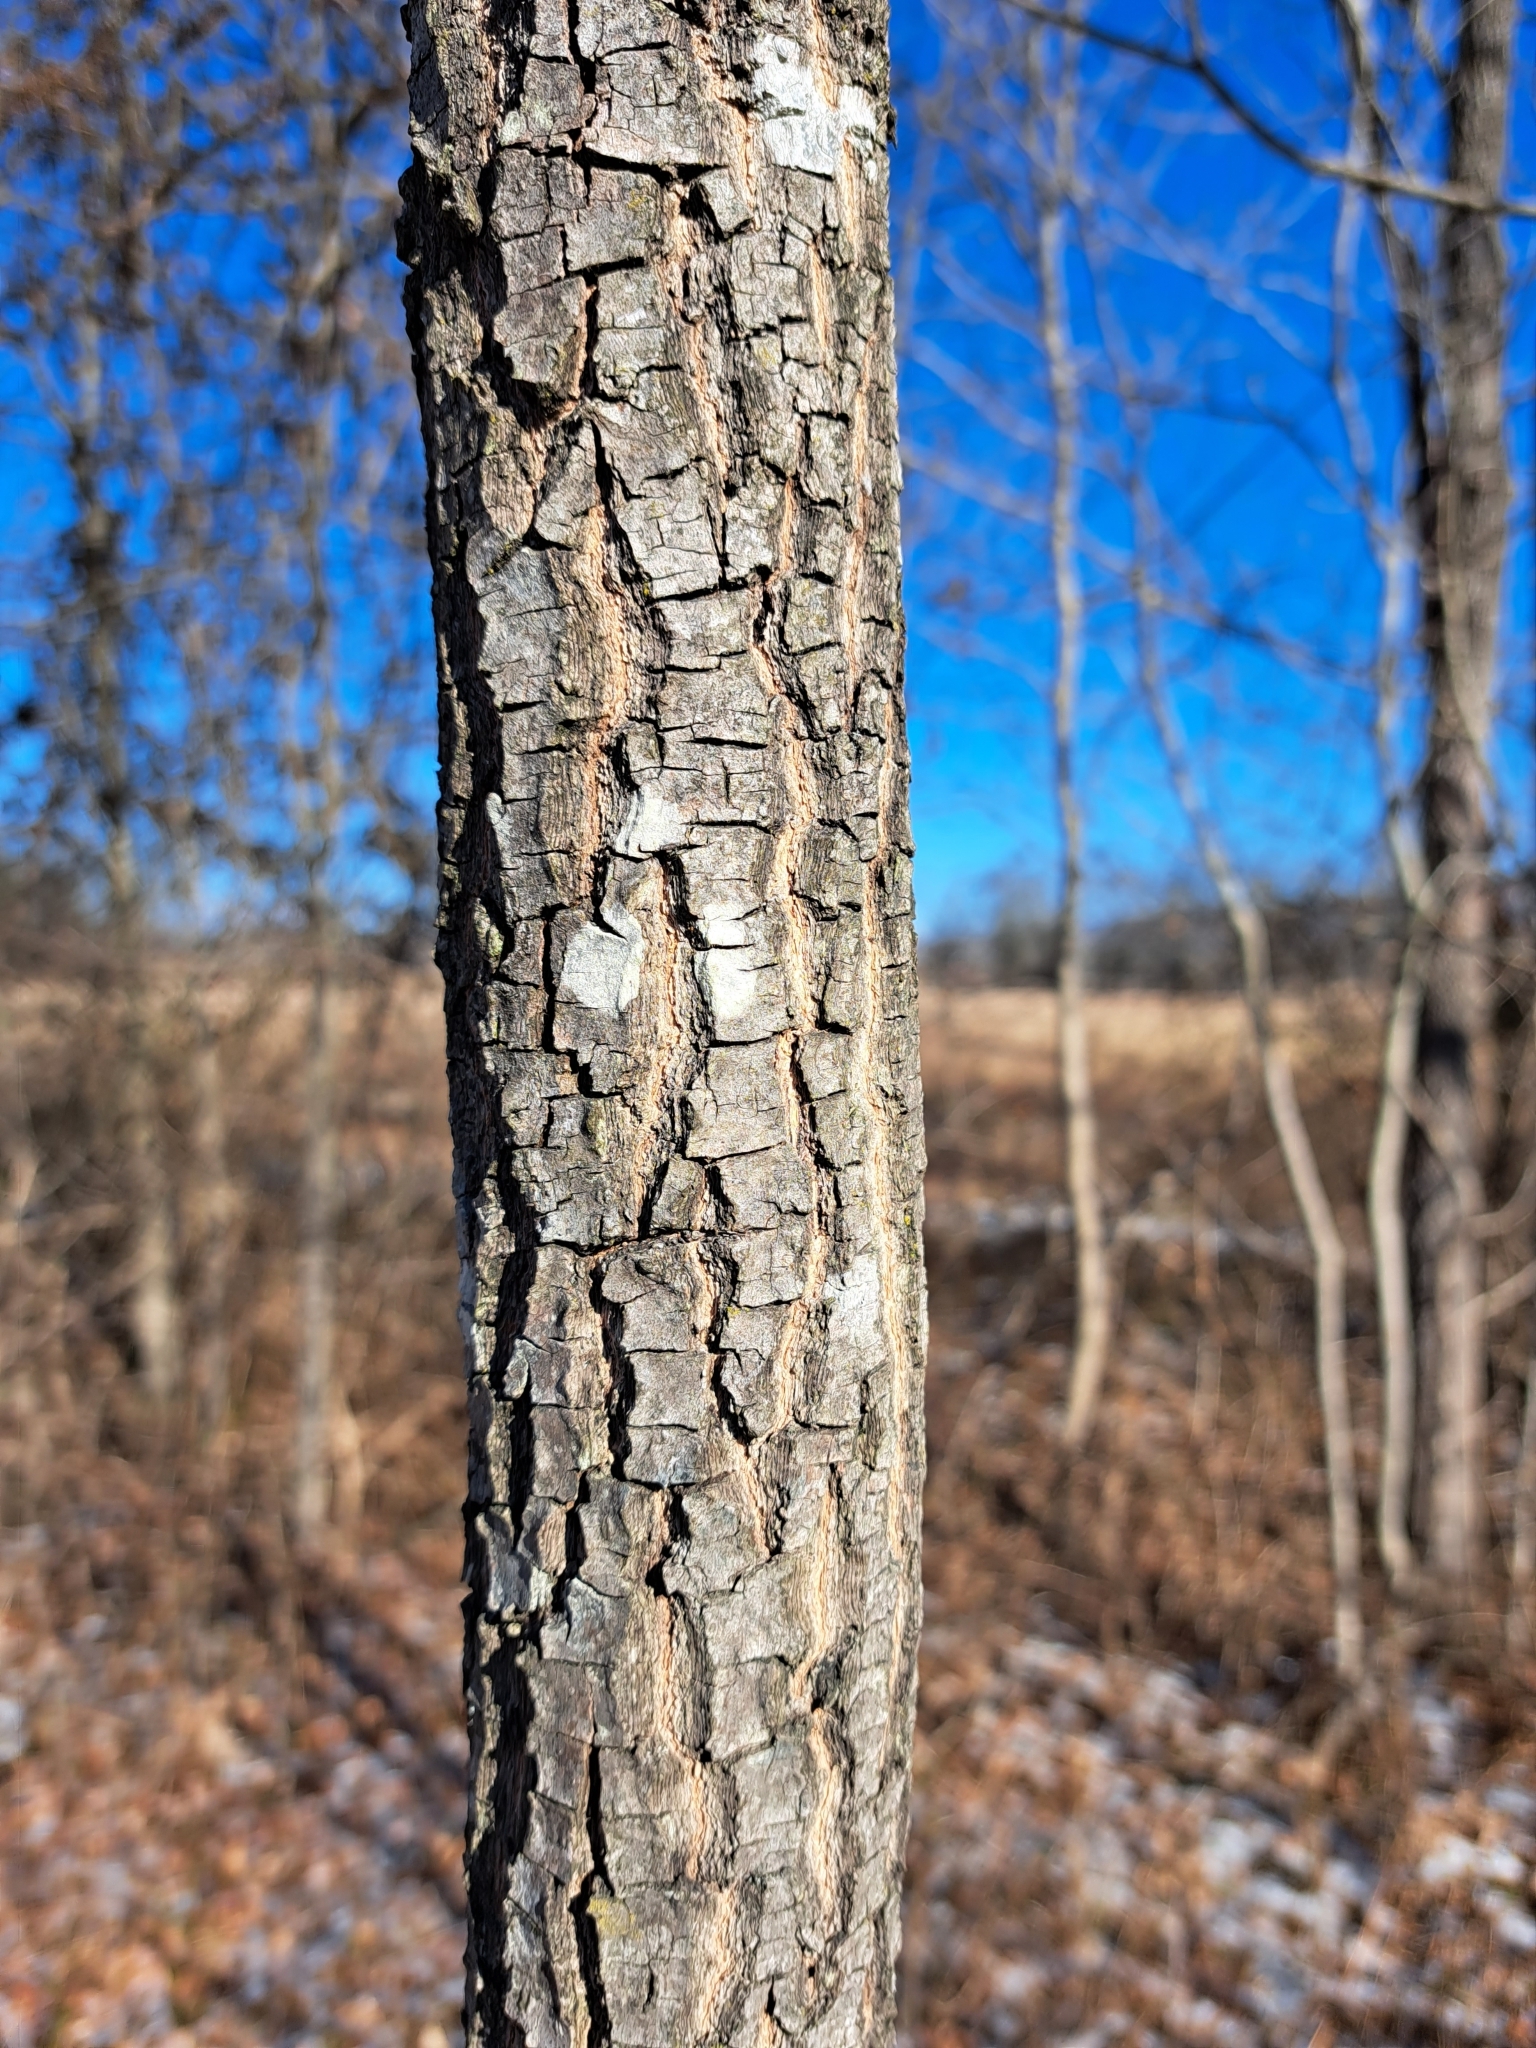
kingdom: Plantae
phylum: Tracheophyta
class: Magnoliopsida
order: Ericales
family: Ebenaceae
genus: Diospyros
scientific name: Diospyros virginiana
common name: Persimmon
